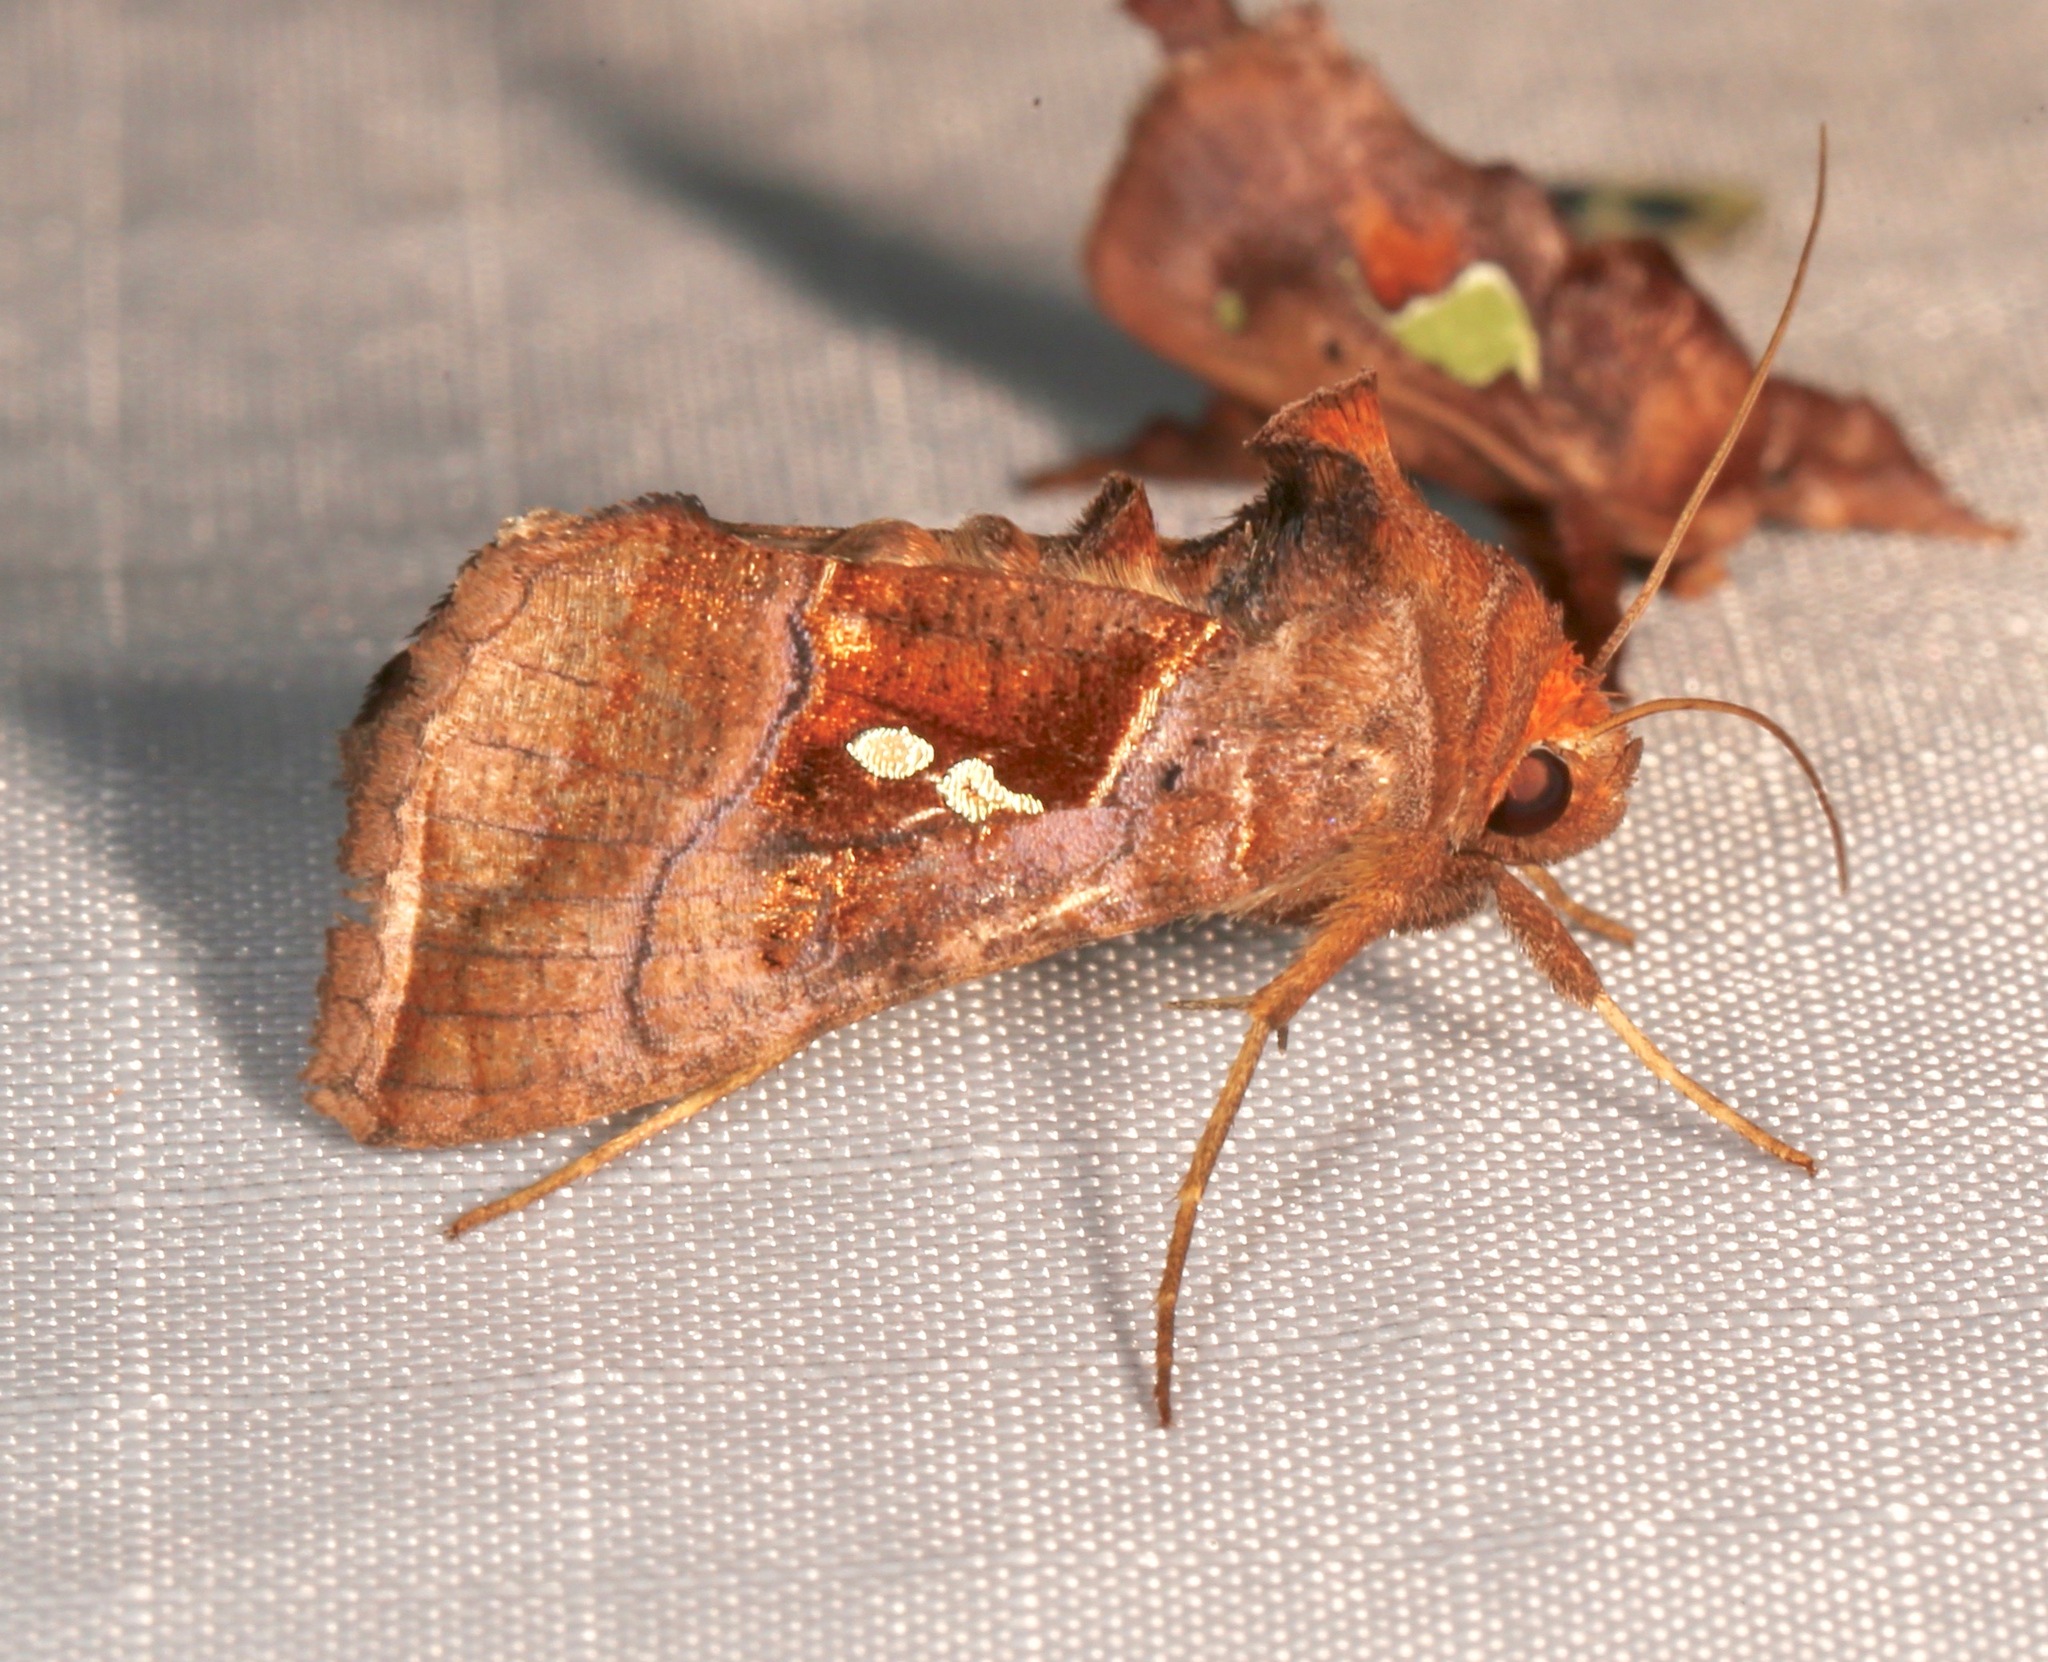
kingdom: Animalia
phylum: Arthropoda
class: Insecta
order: Lepidoptera
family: Noctuidae
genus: Enigmogramma
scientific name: Enigmogramma basigera
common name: Pink-washed looper moth
